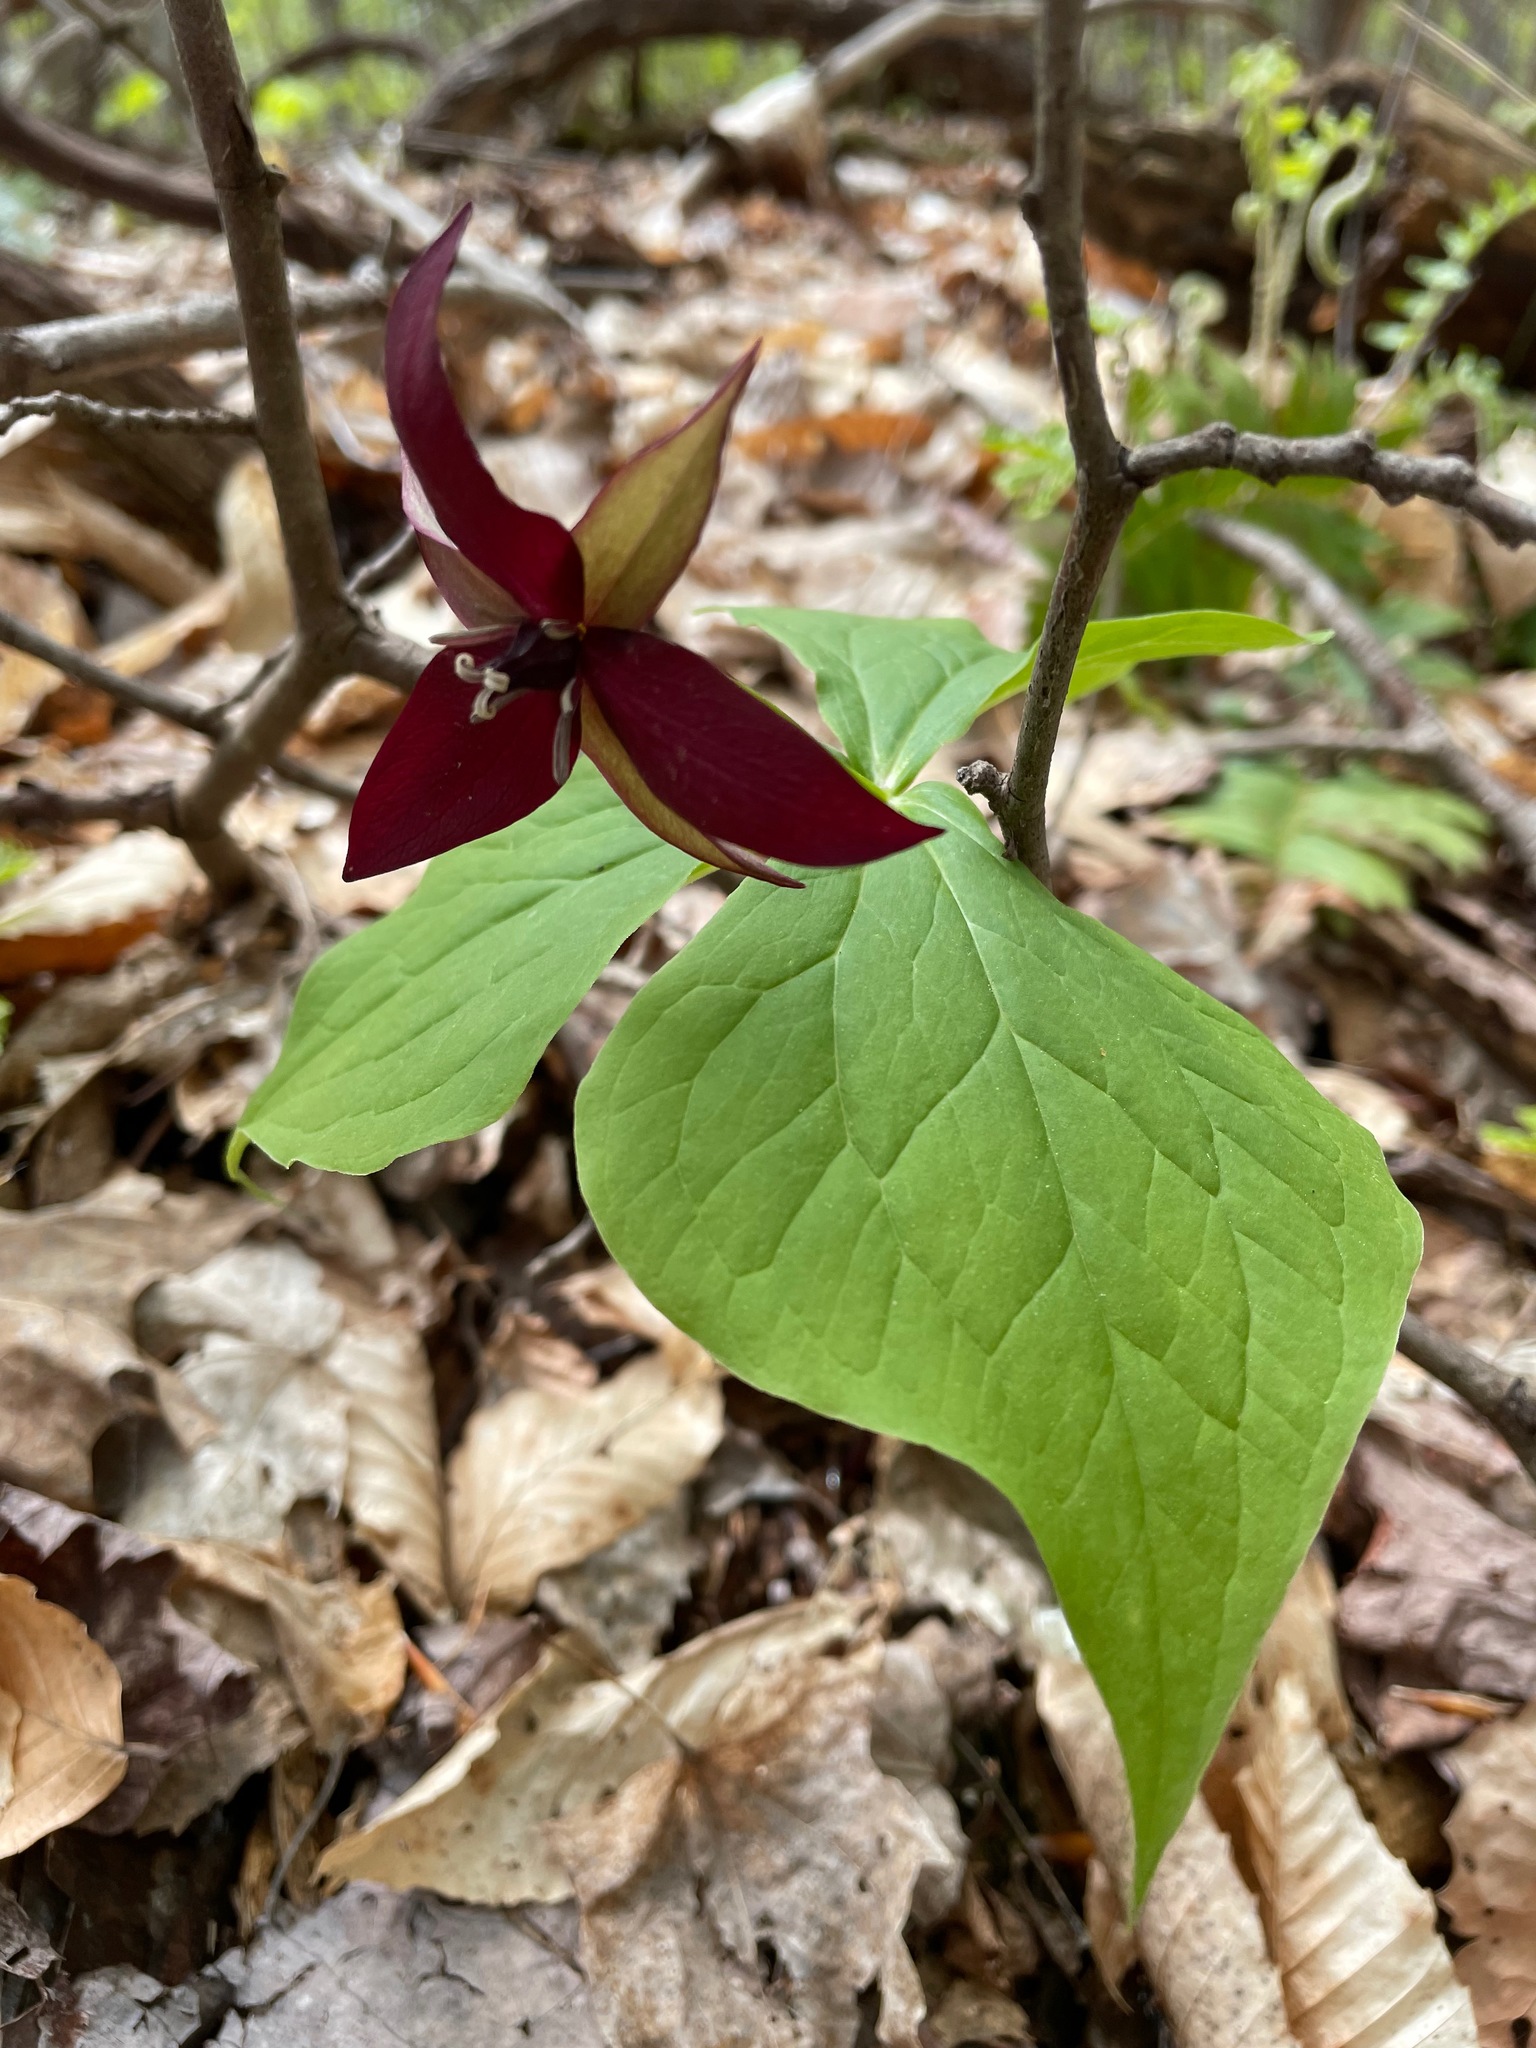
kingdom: Plantae
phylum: Tracheophyta
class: Liliopsida
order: Liliales
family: Melanthiaceae
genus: Trillium
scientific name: Trillium erectum
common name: Purple trillium
